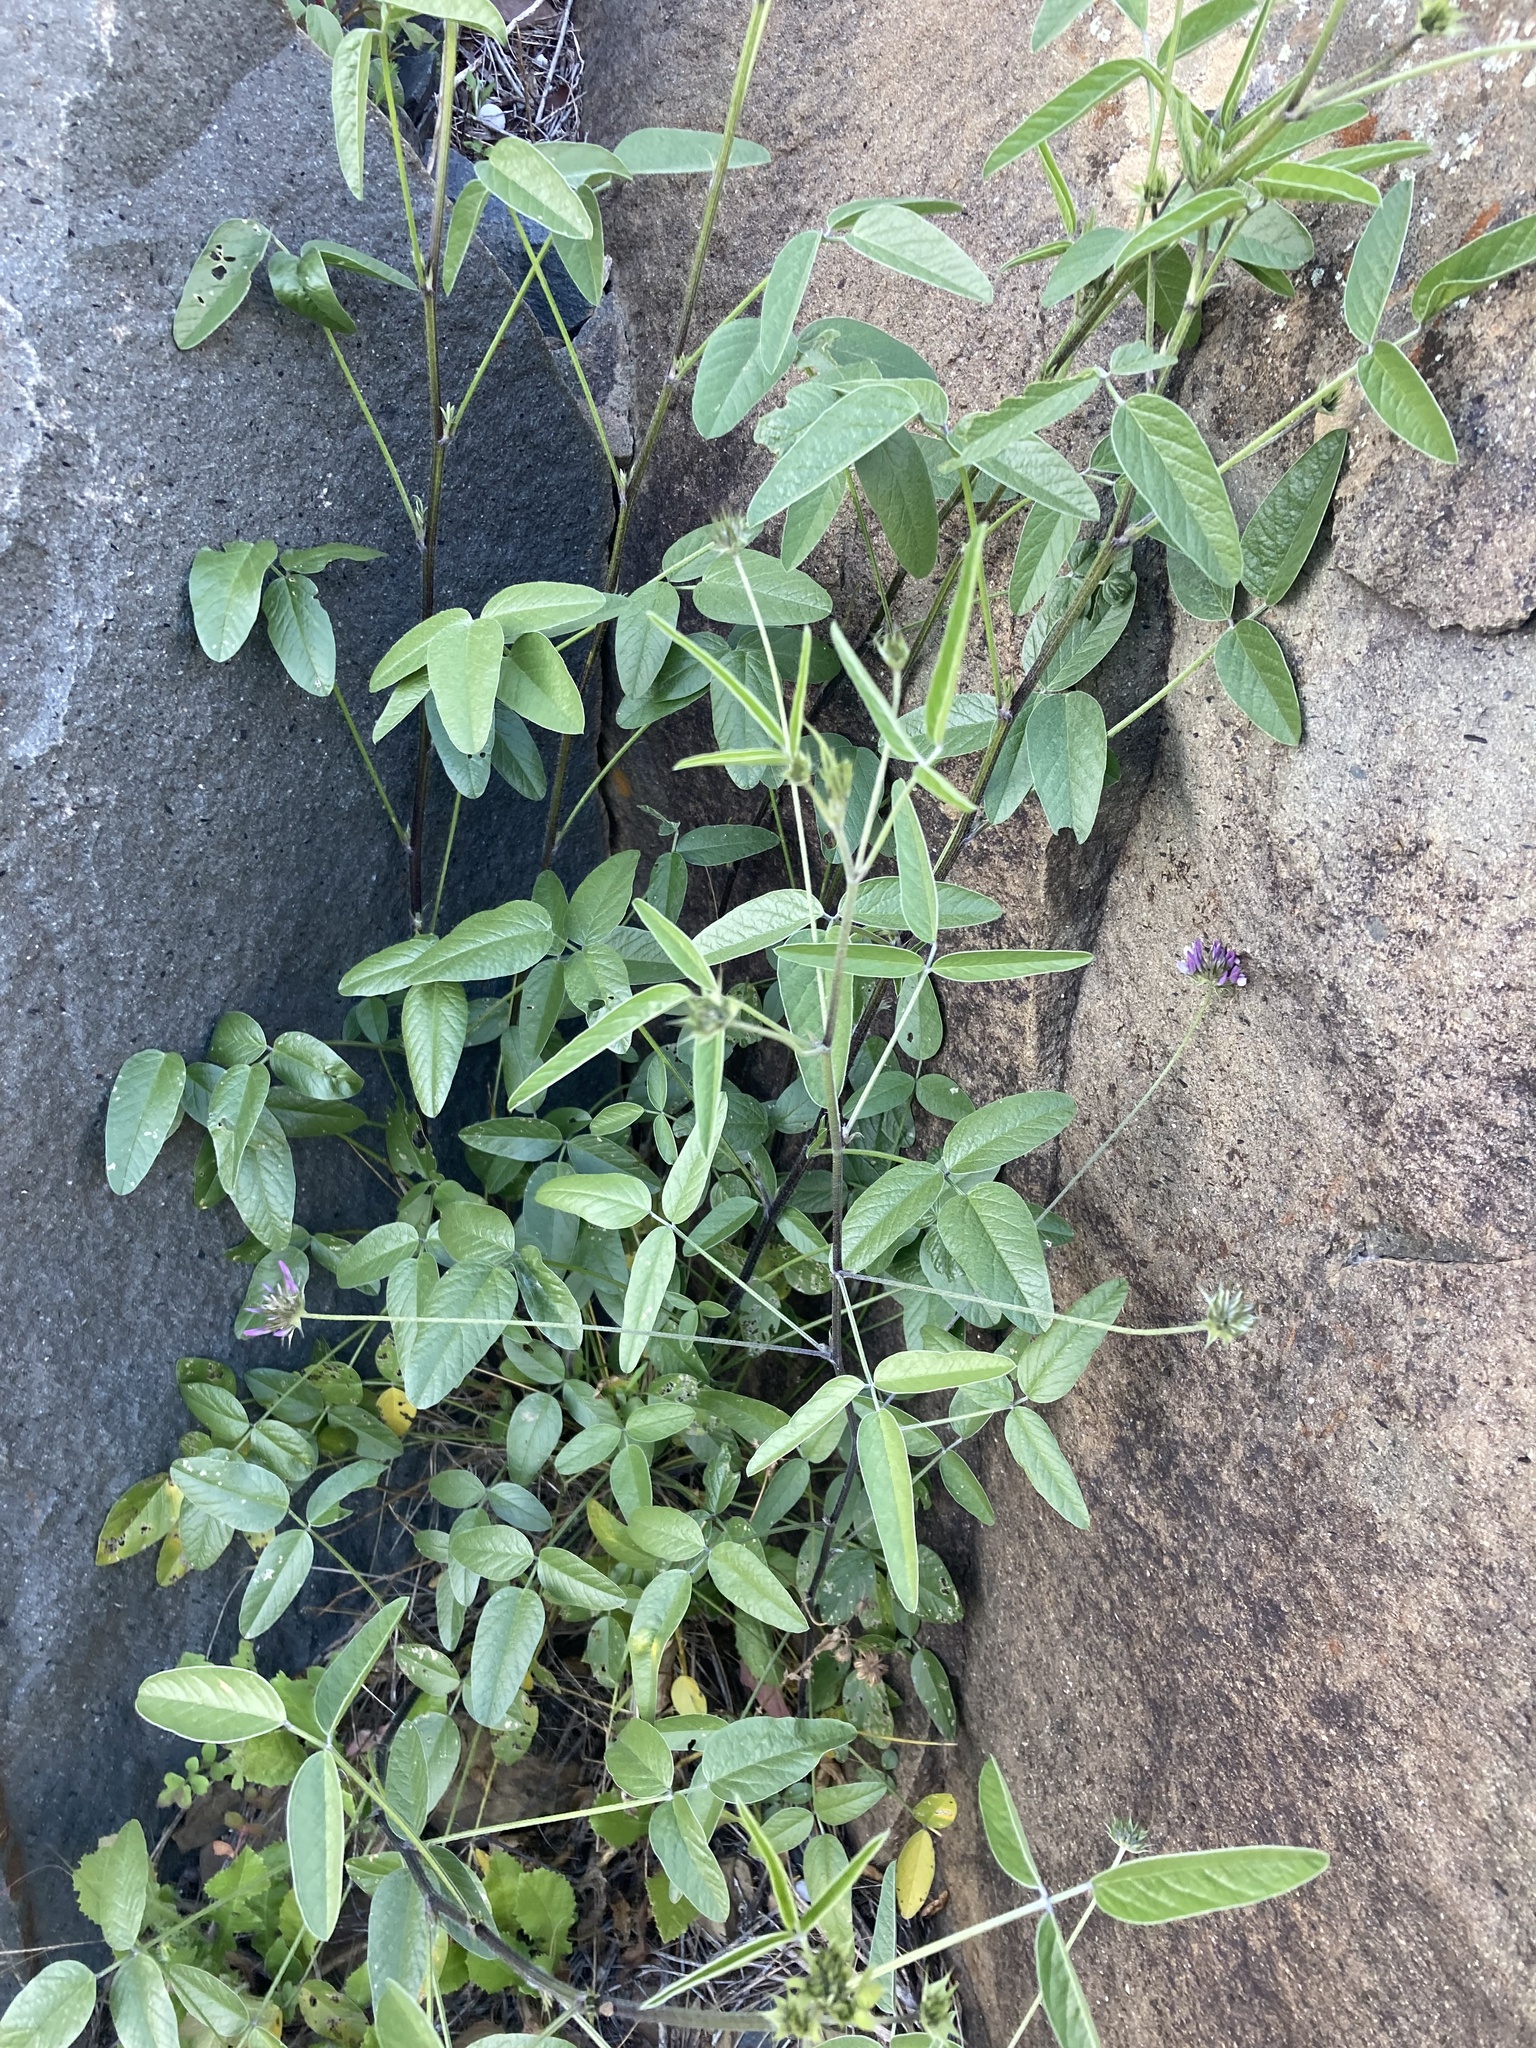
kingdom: Plantae
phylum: Tracheophyta
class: Magnoliopsida
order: Fabales
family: Fabaceae
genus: Bituminaria
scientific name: Bituminaria bituminosa
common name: Arabian pea
